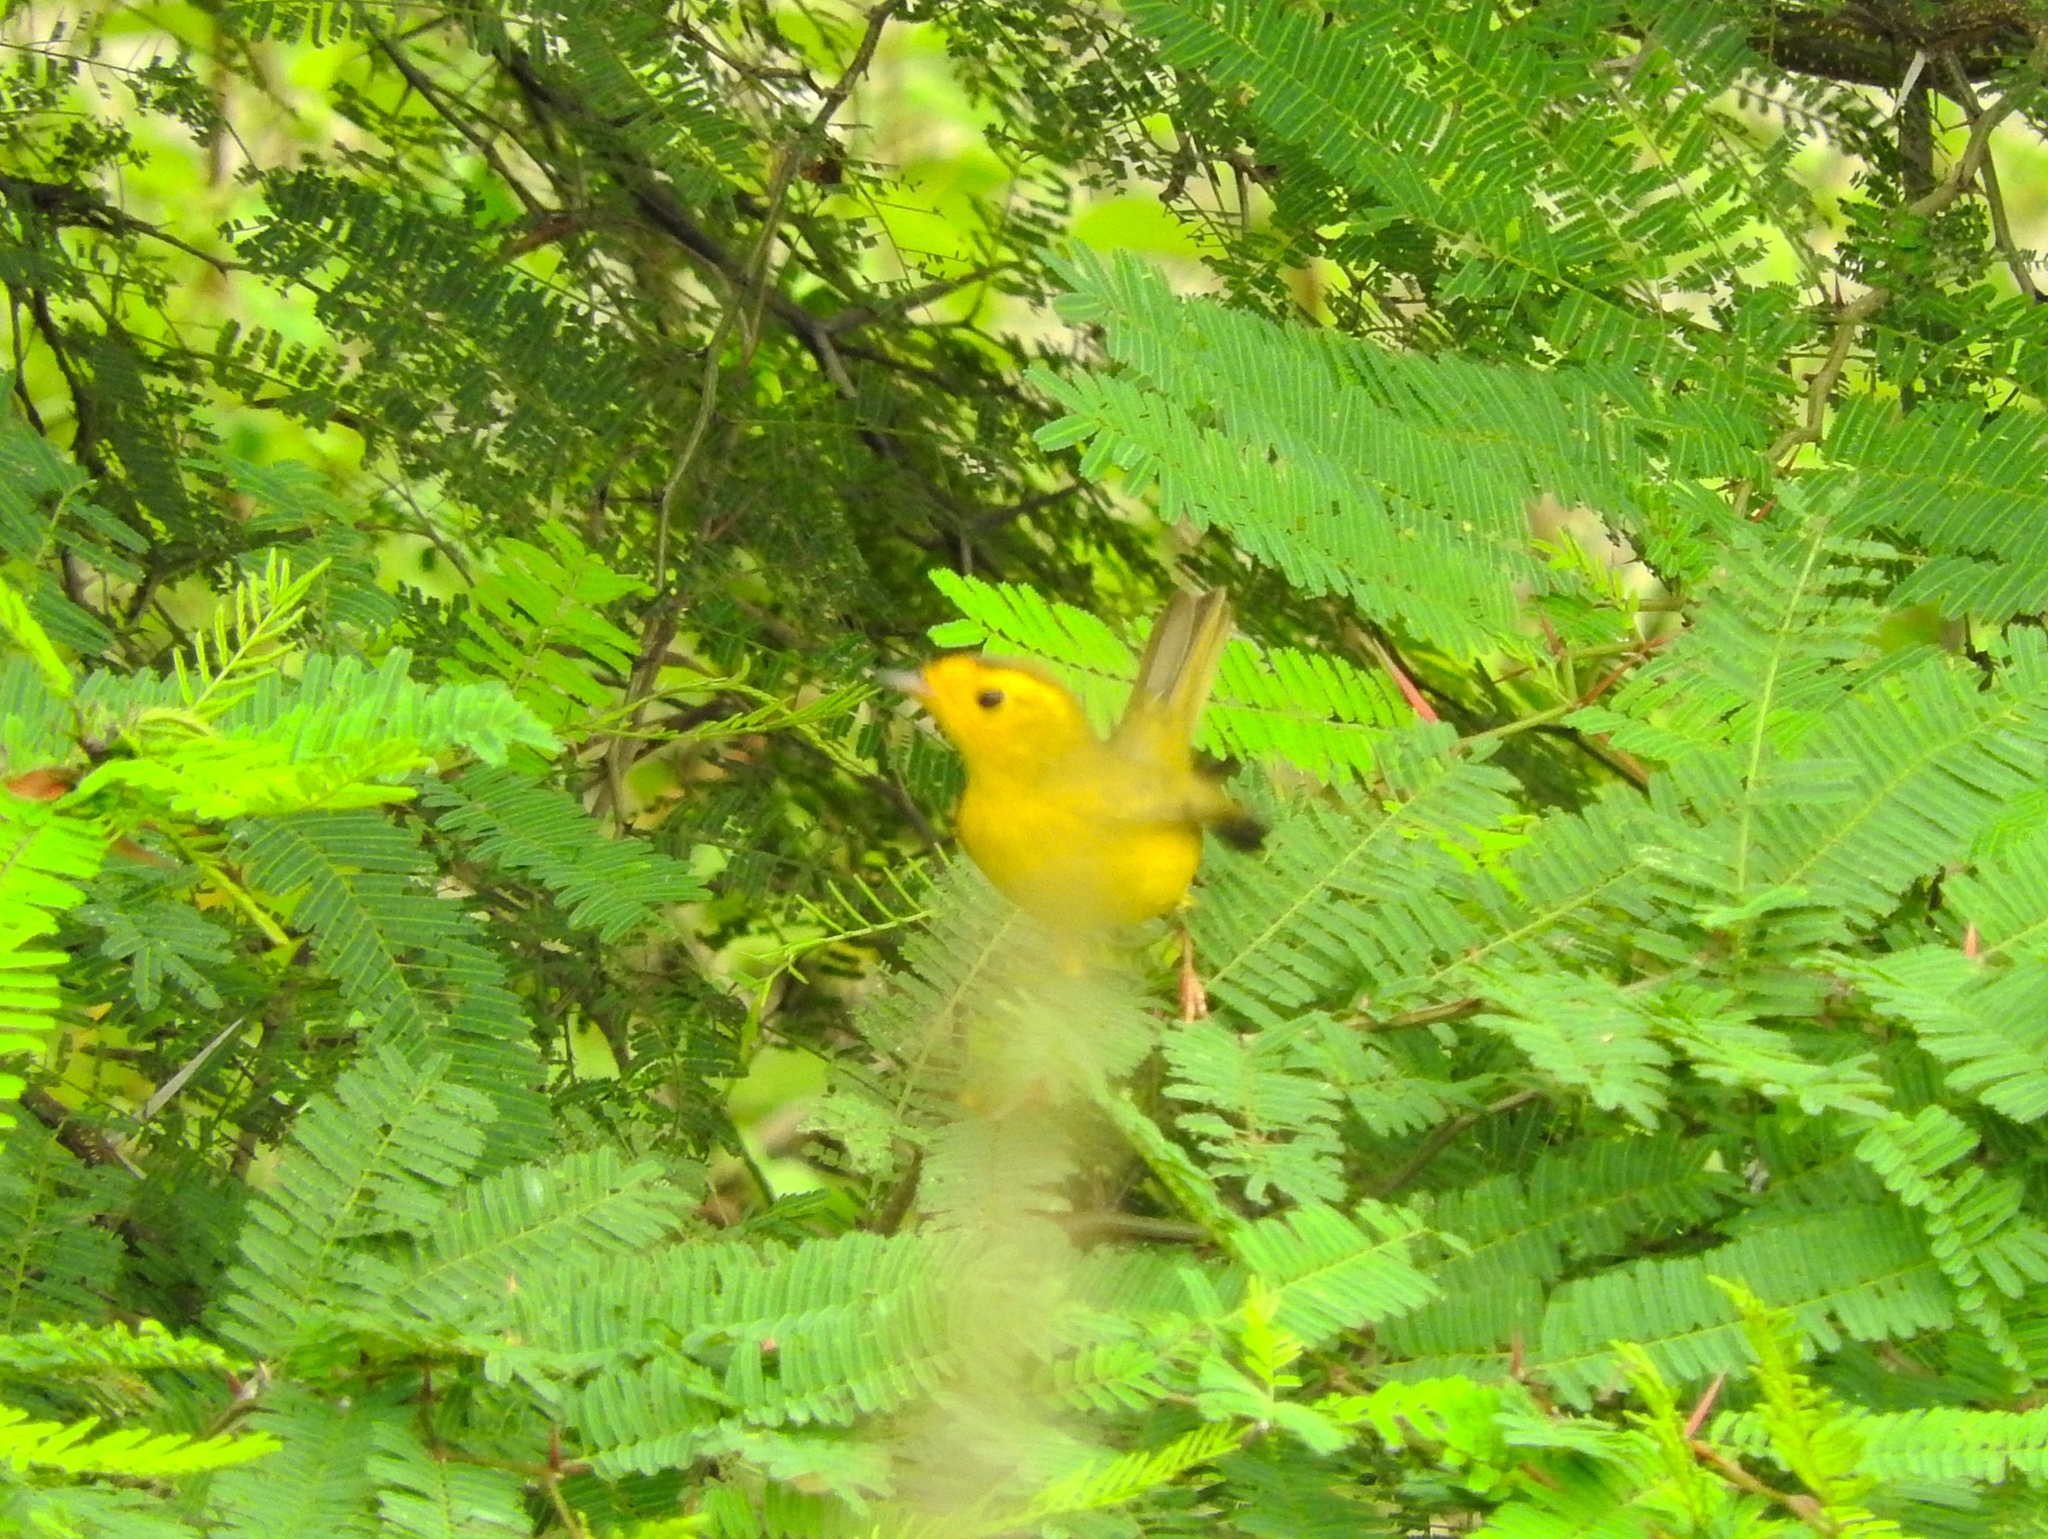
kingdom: Animalia
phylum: Chordata
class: Aves
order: Passeriformes
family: Parulidae
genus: Cardellina
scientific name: Cardellina pusilla
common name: Wilson's warbler
